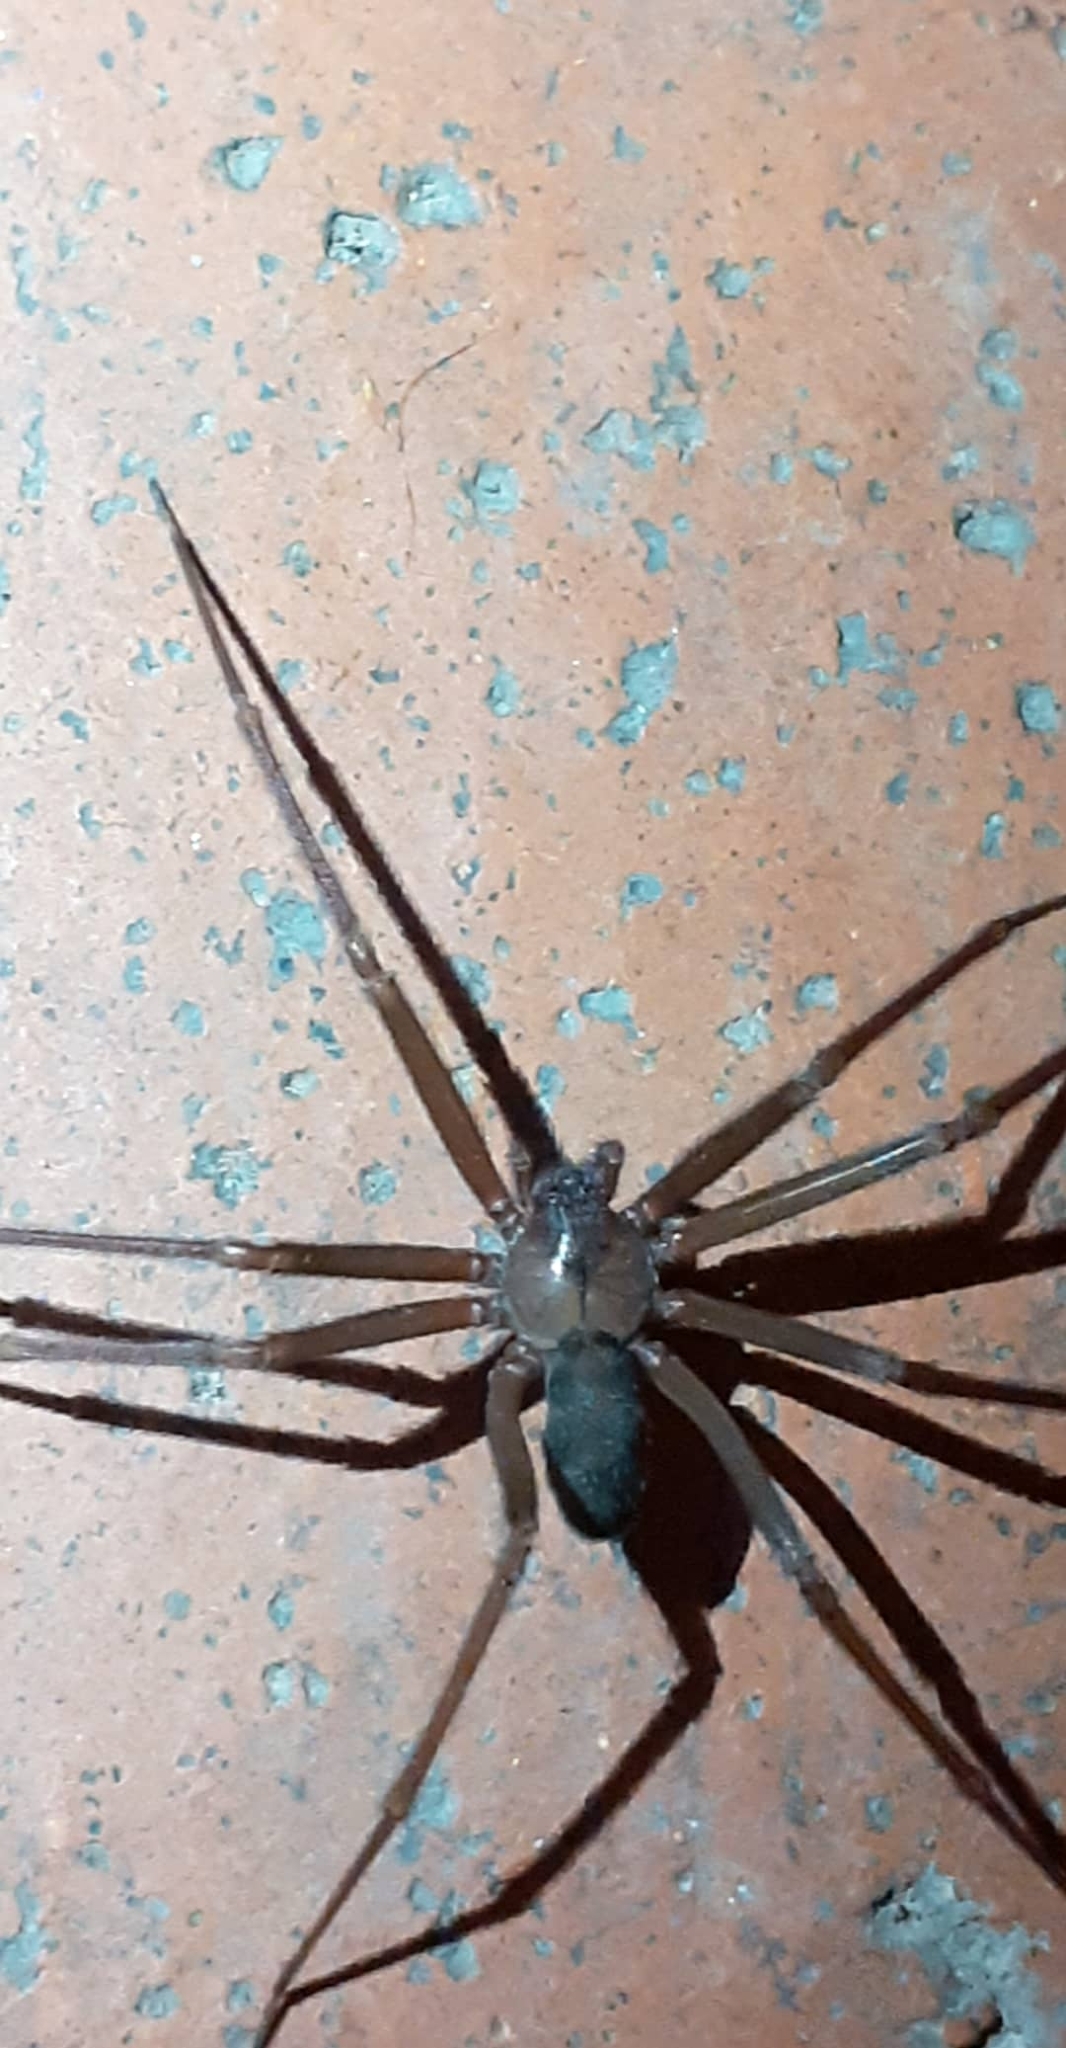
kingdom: Animalia
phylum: Arthropoda
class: Arachnida
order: Araneae
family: Sicariidae
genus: Loxosceles
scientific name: Loxosceles rufescens
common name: Mediterranean recluse spider
